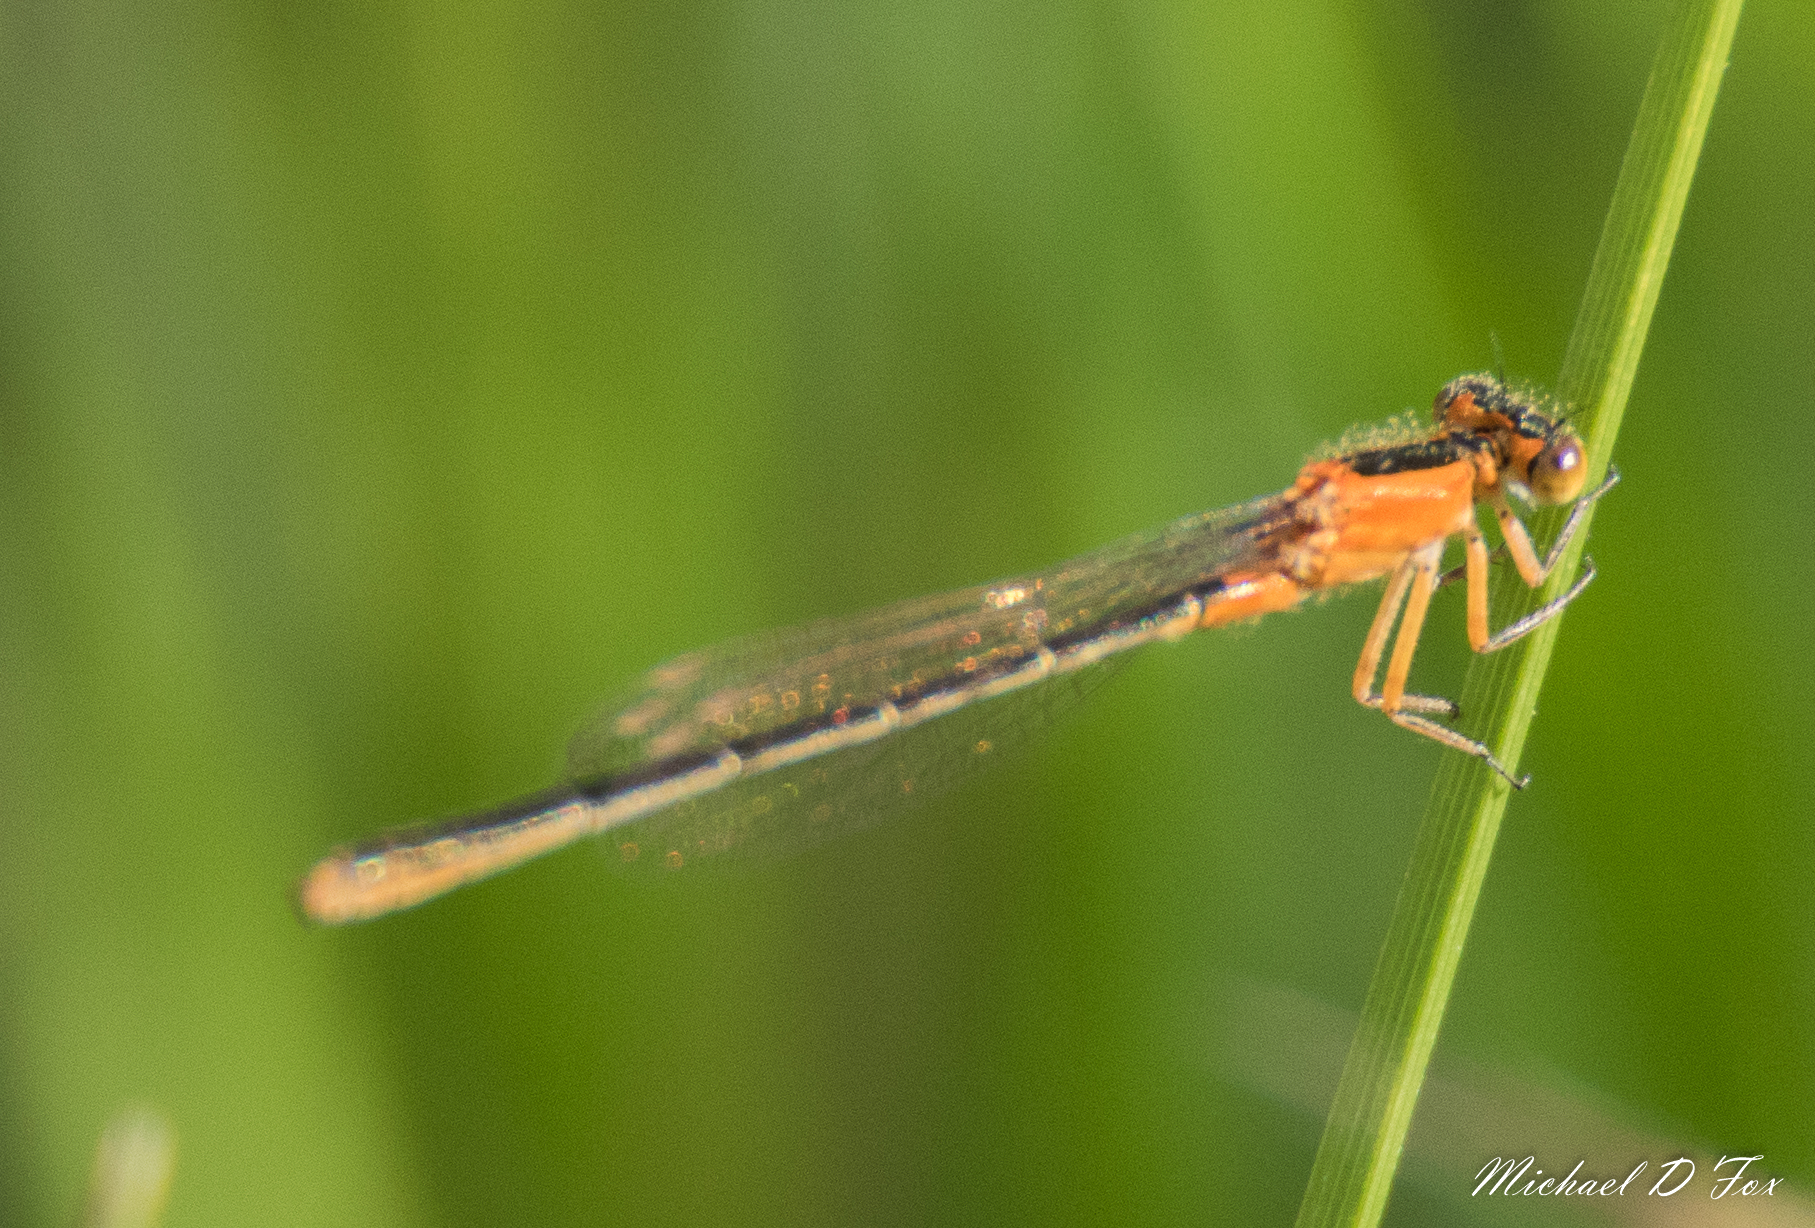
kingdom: Animalia
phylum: Arthropoda
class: Insecta
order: Odonata
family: Coenagrionidae
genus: Ischnura
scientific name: Ischnura ramburii
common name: Rambur's forktail
